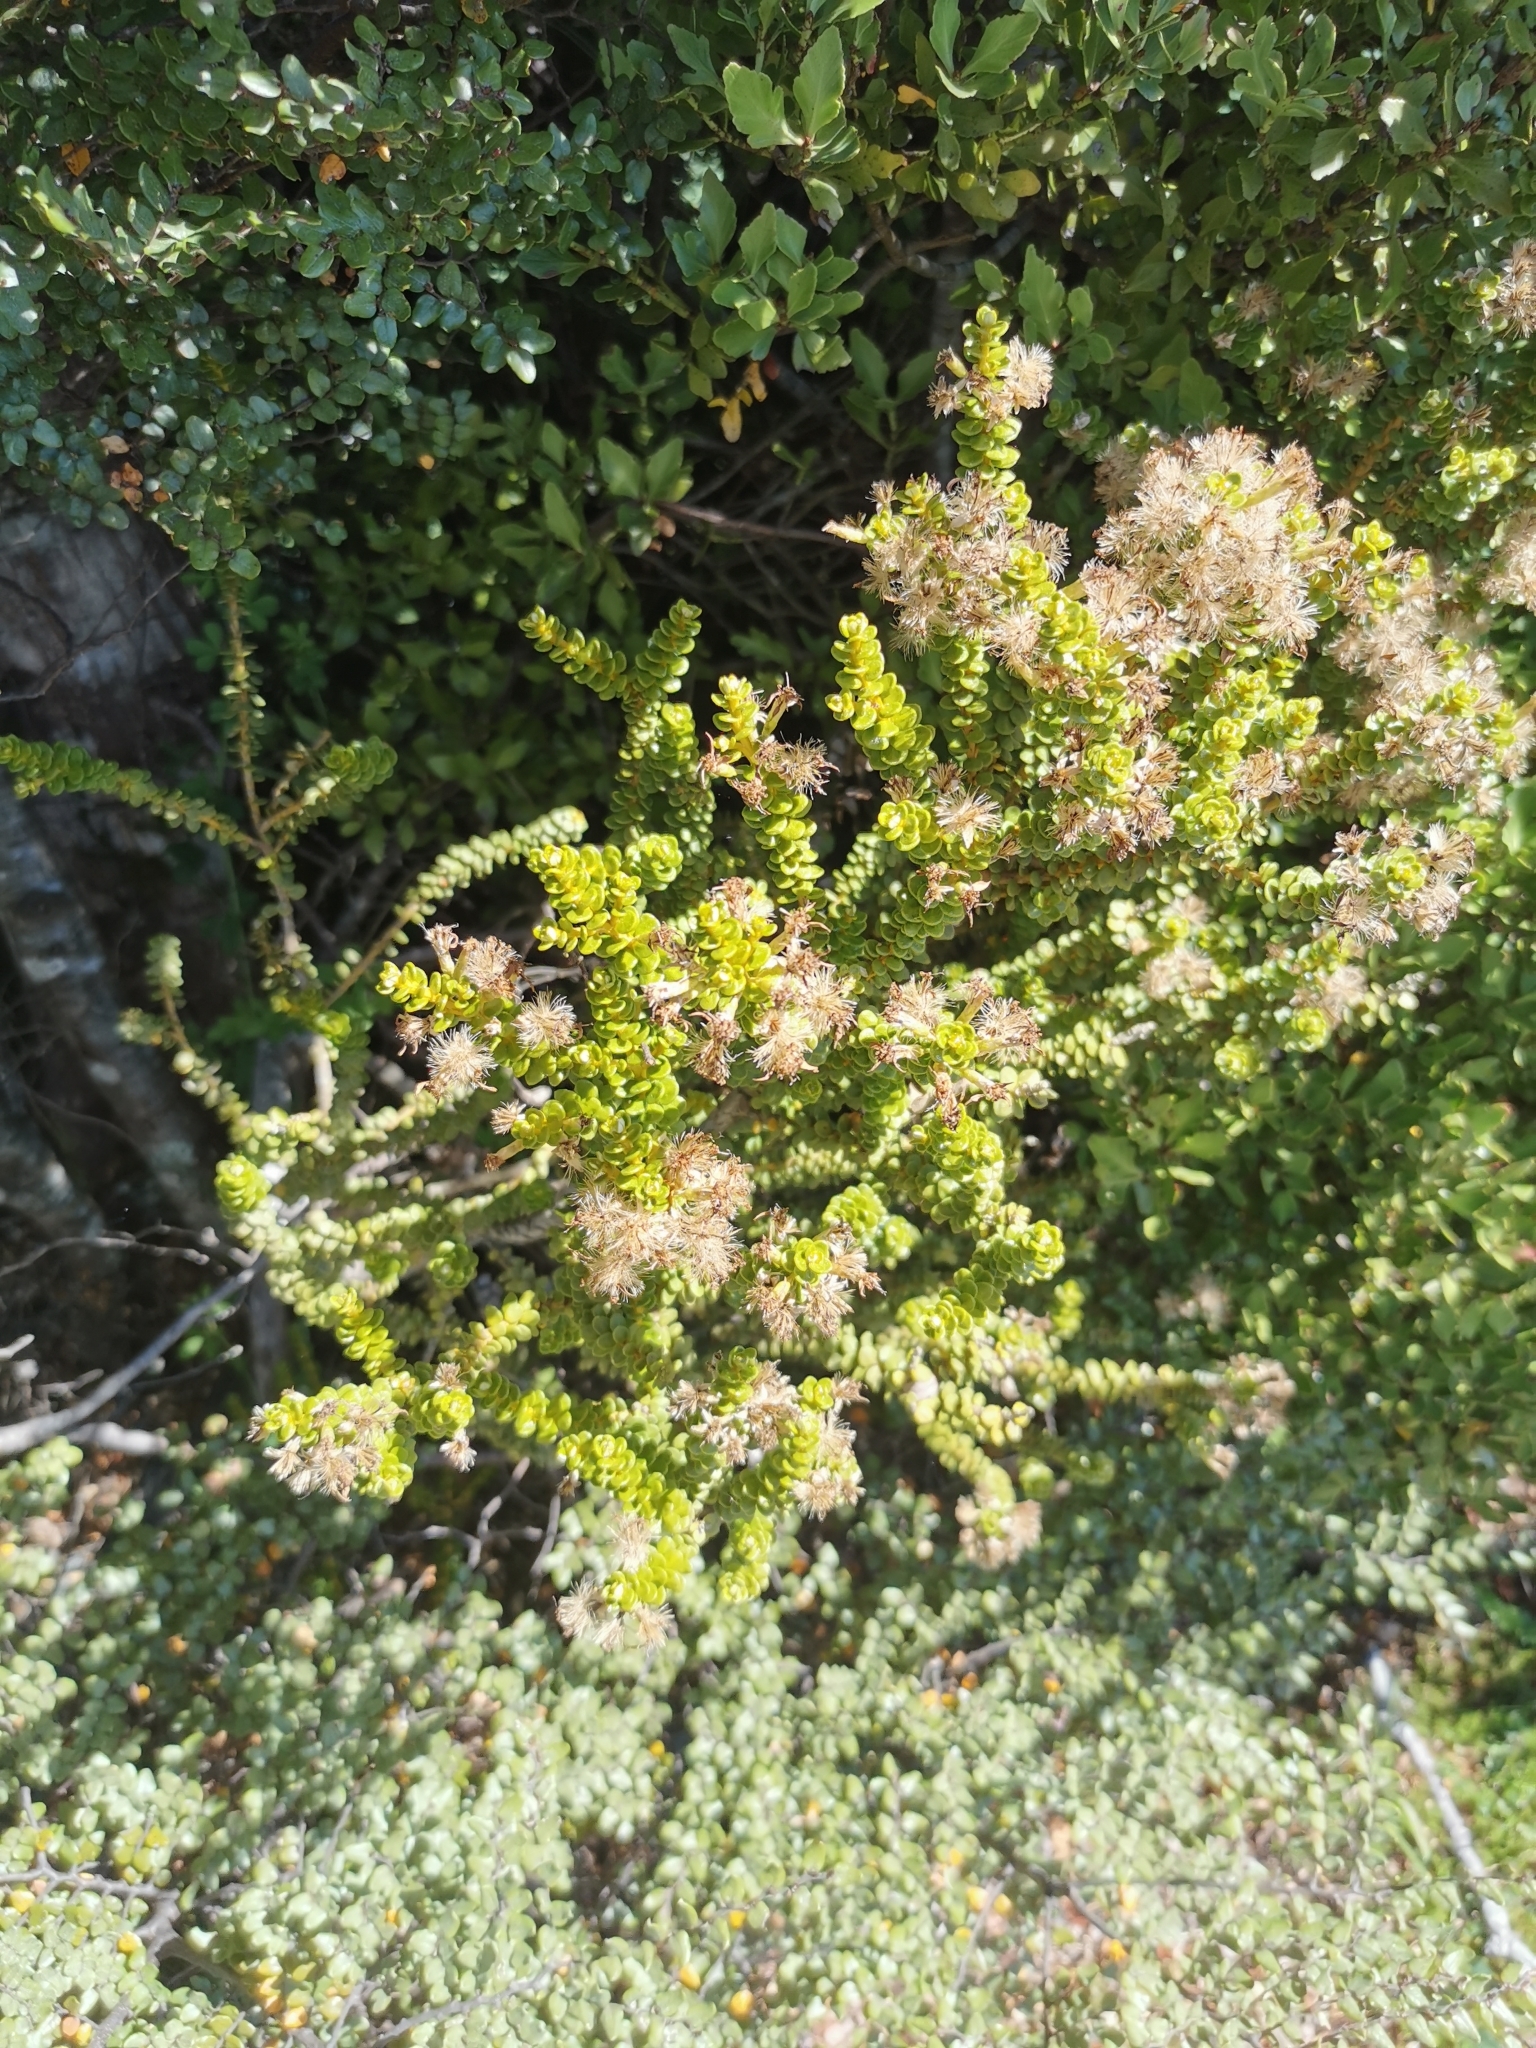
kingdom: Plantae
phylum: Tracheophyta
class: Magnoliopsida
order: Asterales
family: Asteraceae
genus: Olearia
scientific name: Olearia nummularifolia
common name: Sticky daisybush
